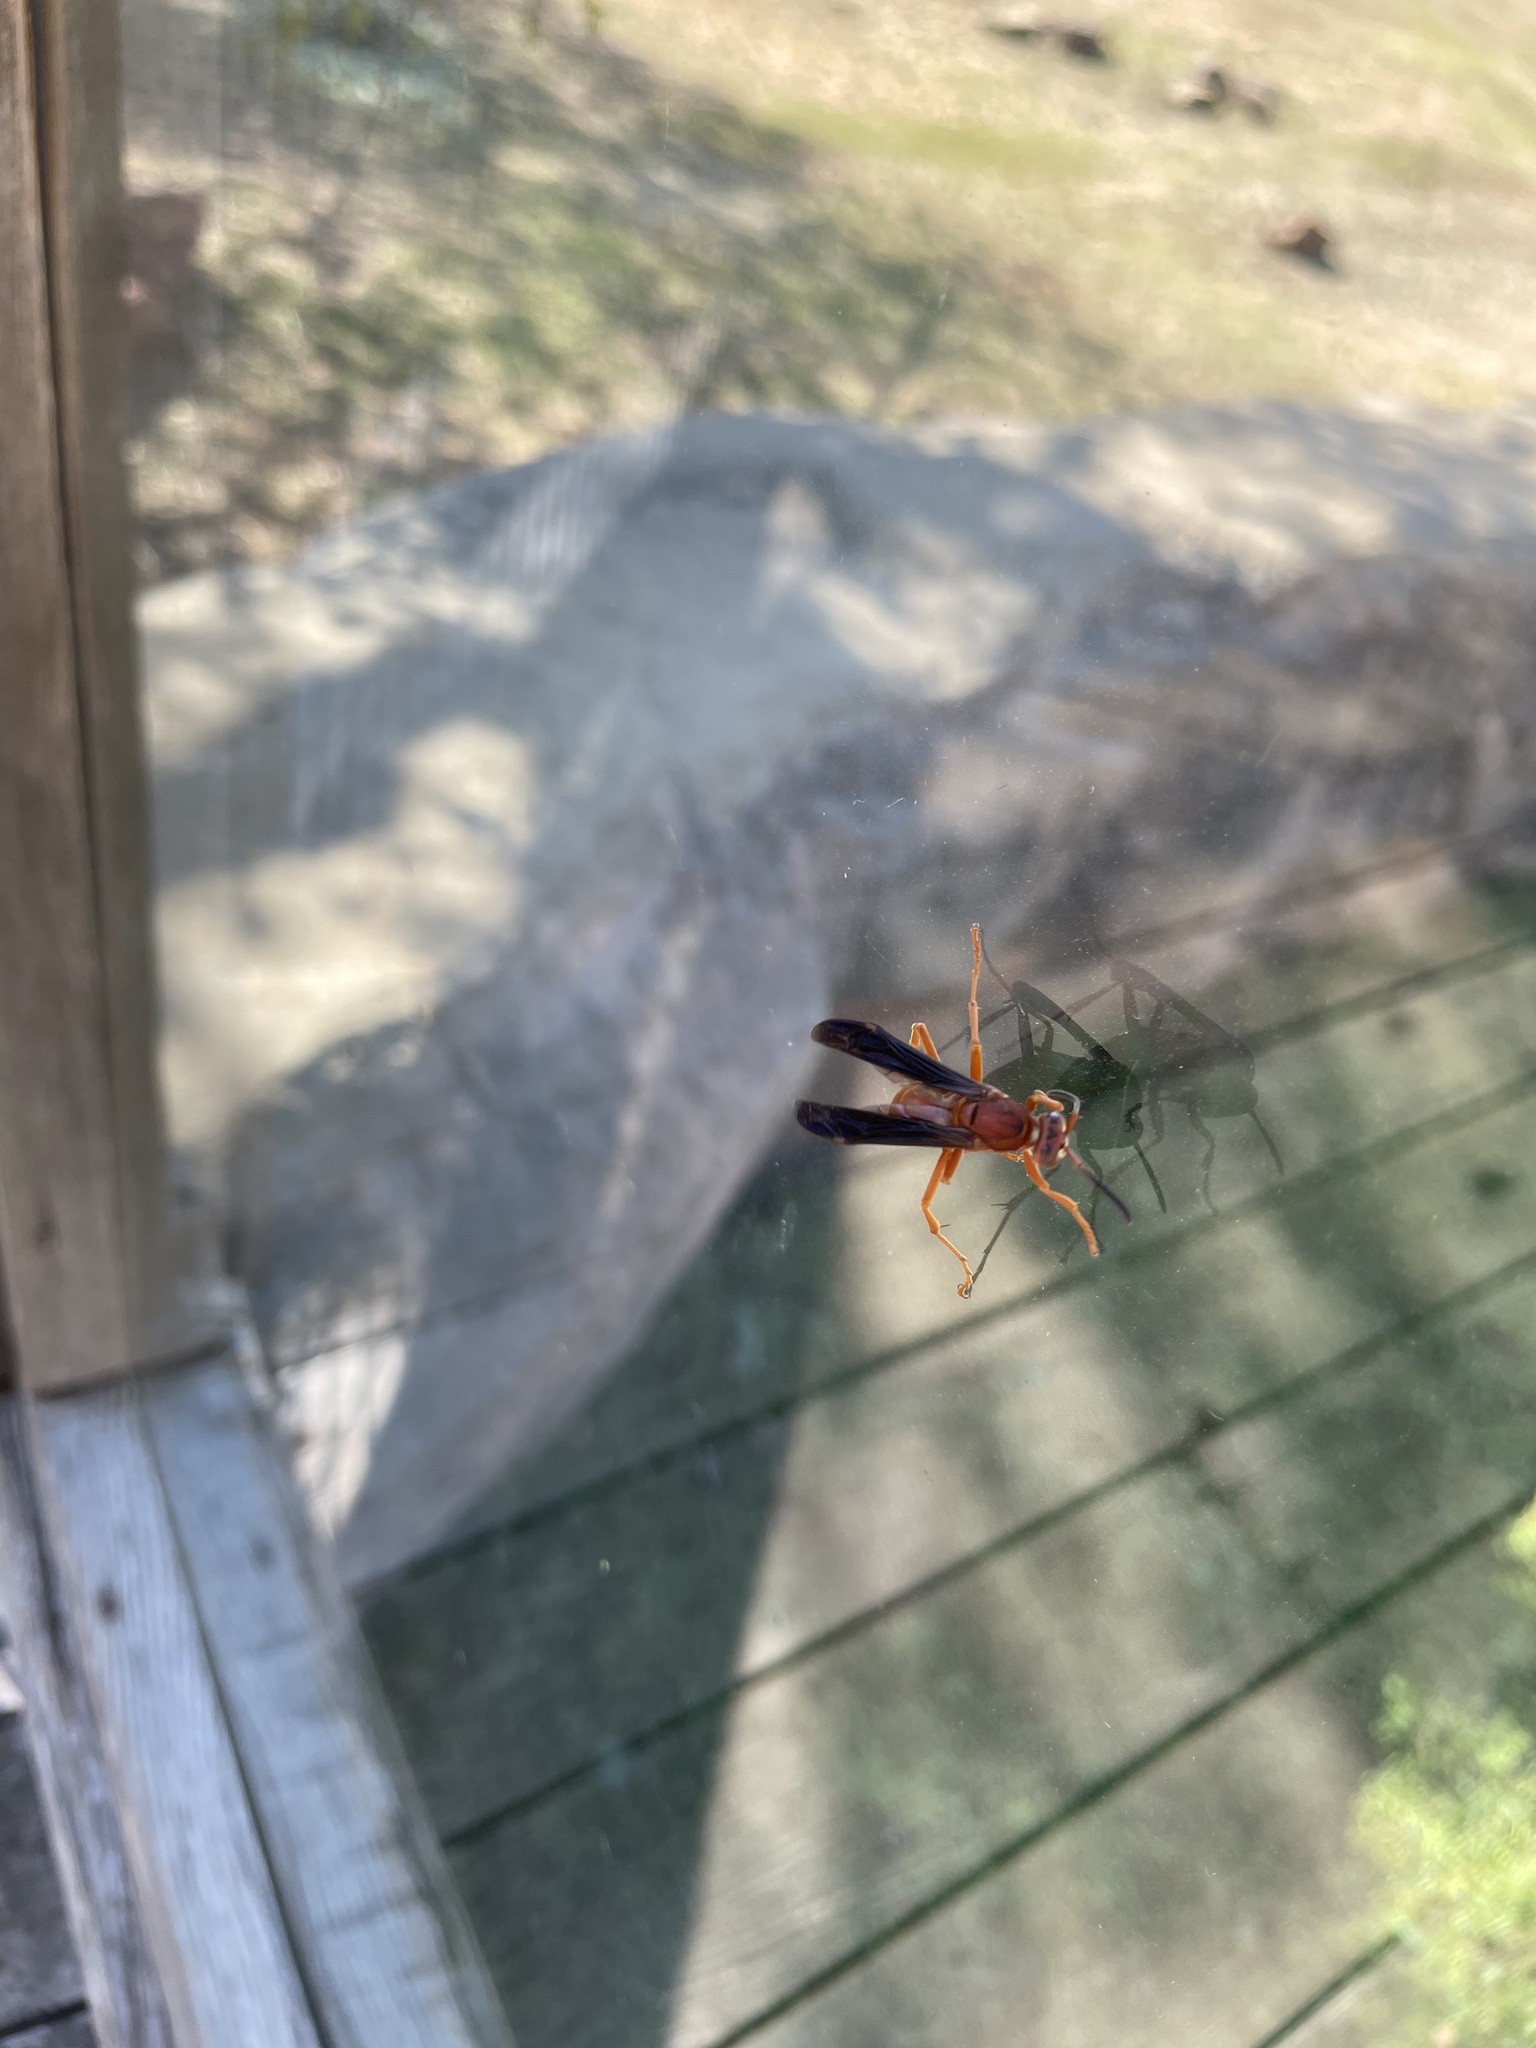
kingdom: Animalia
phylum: Arthropoda
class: Insecta
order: Hymenoptera
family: Eumenidae
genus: Polistes
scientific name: Polistes carolina
